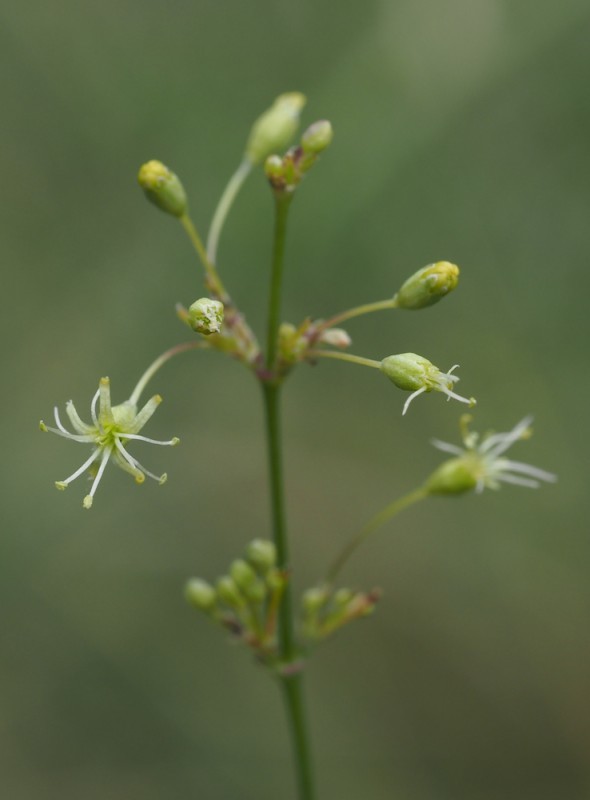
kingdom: Plantae
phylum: Tracheophyta
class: Magnoliopsida
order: Caryophyllales
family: Caryophyllaceae
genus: Silene
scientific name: Silene otites
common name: Spanish catchfly
